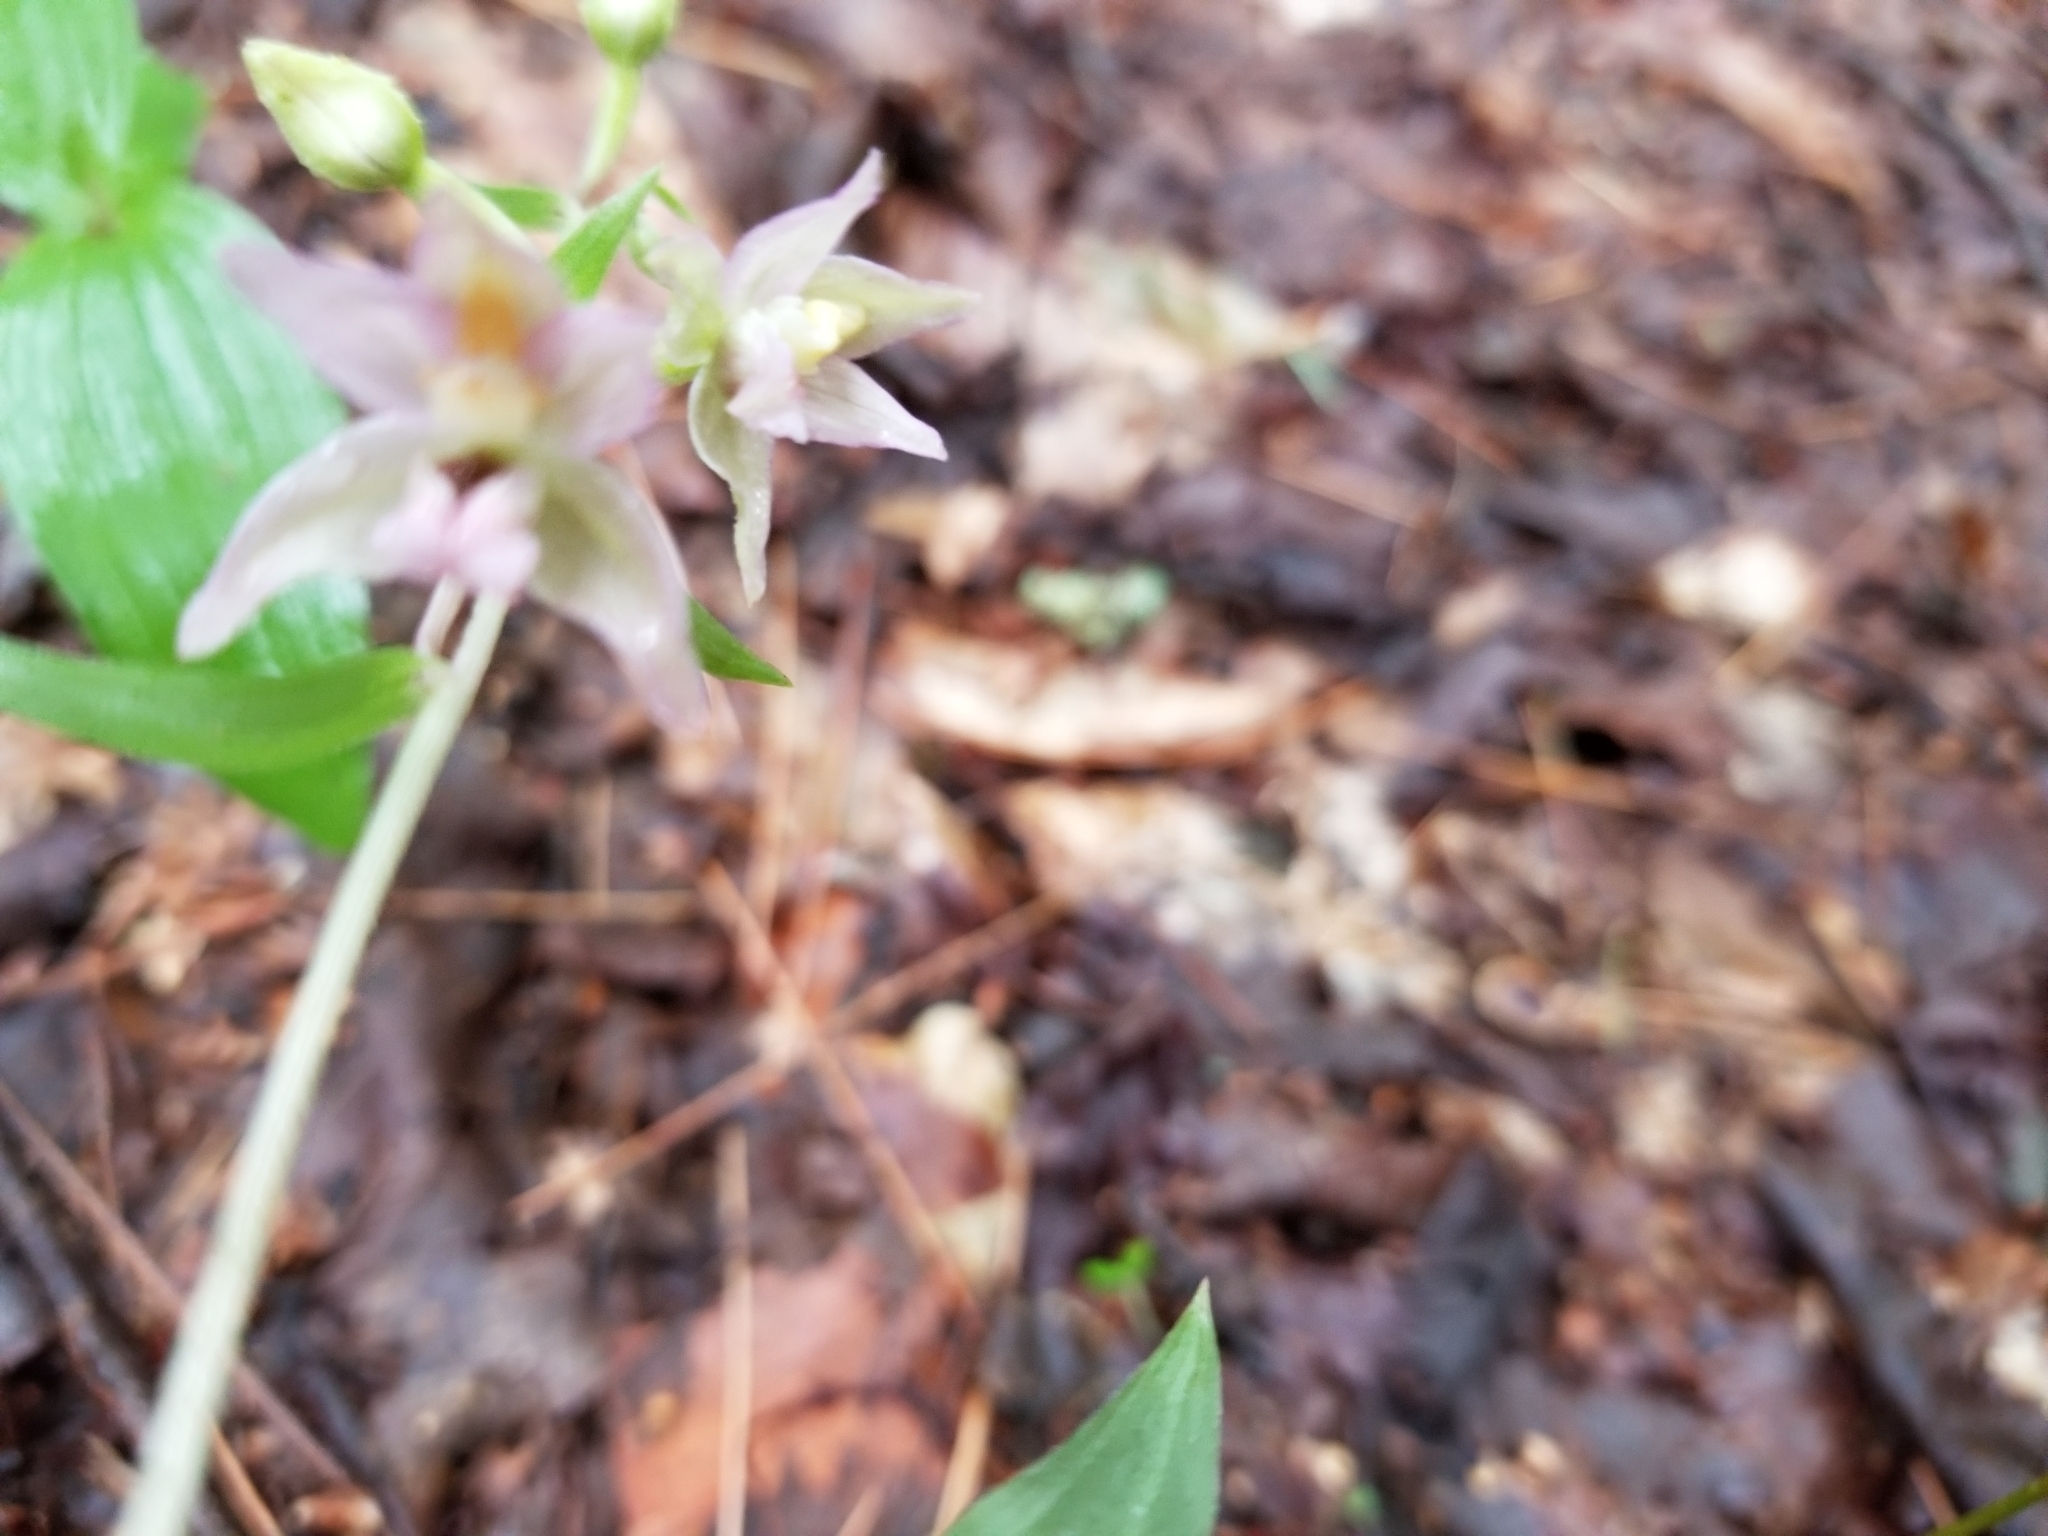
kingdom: Plantae
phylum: Tracheophyta
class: Liliopsida
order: Asparagales
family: Orchidaceae
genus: Epipactis
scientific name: Epipactis helleborine
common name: Broad-leaved helleborine
